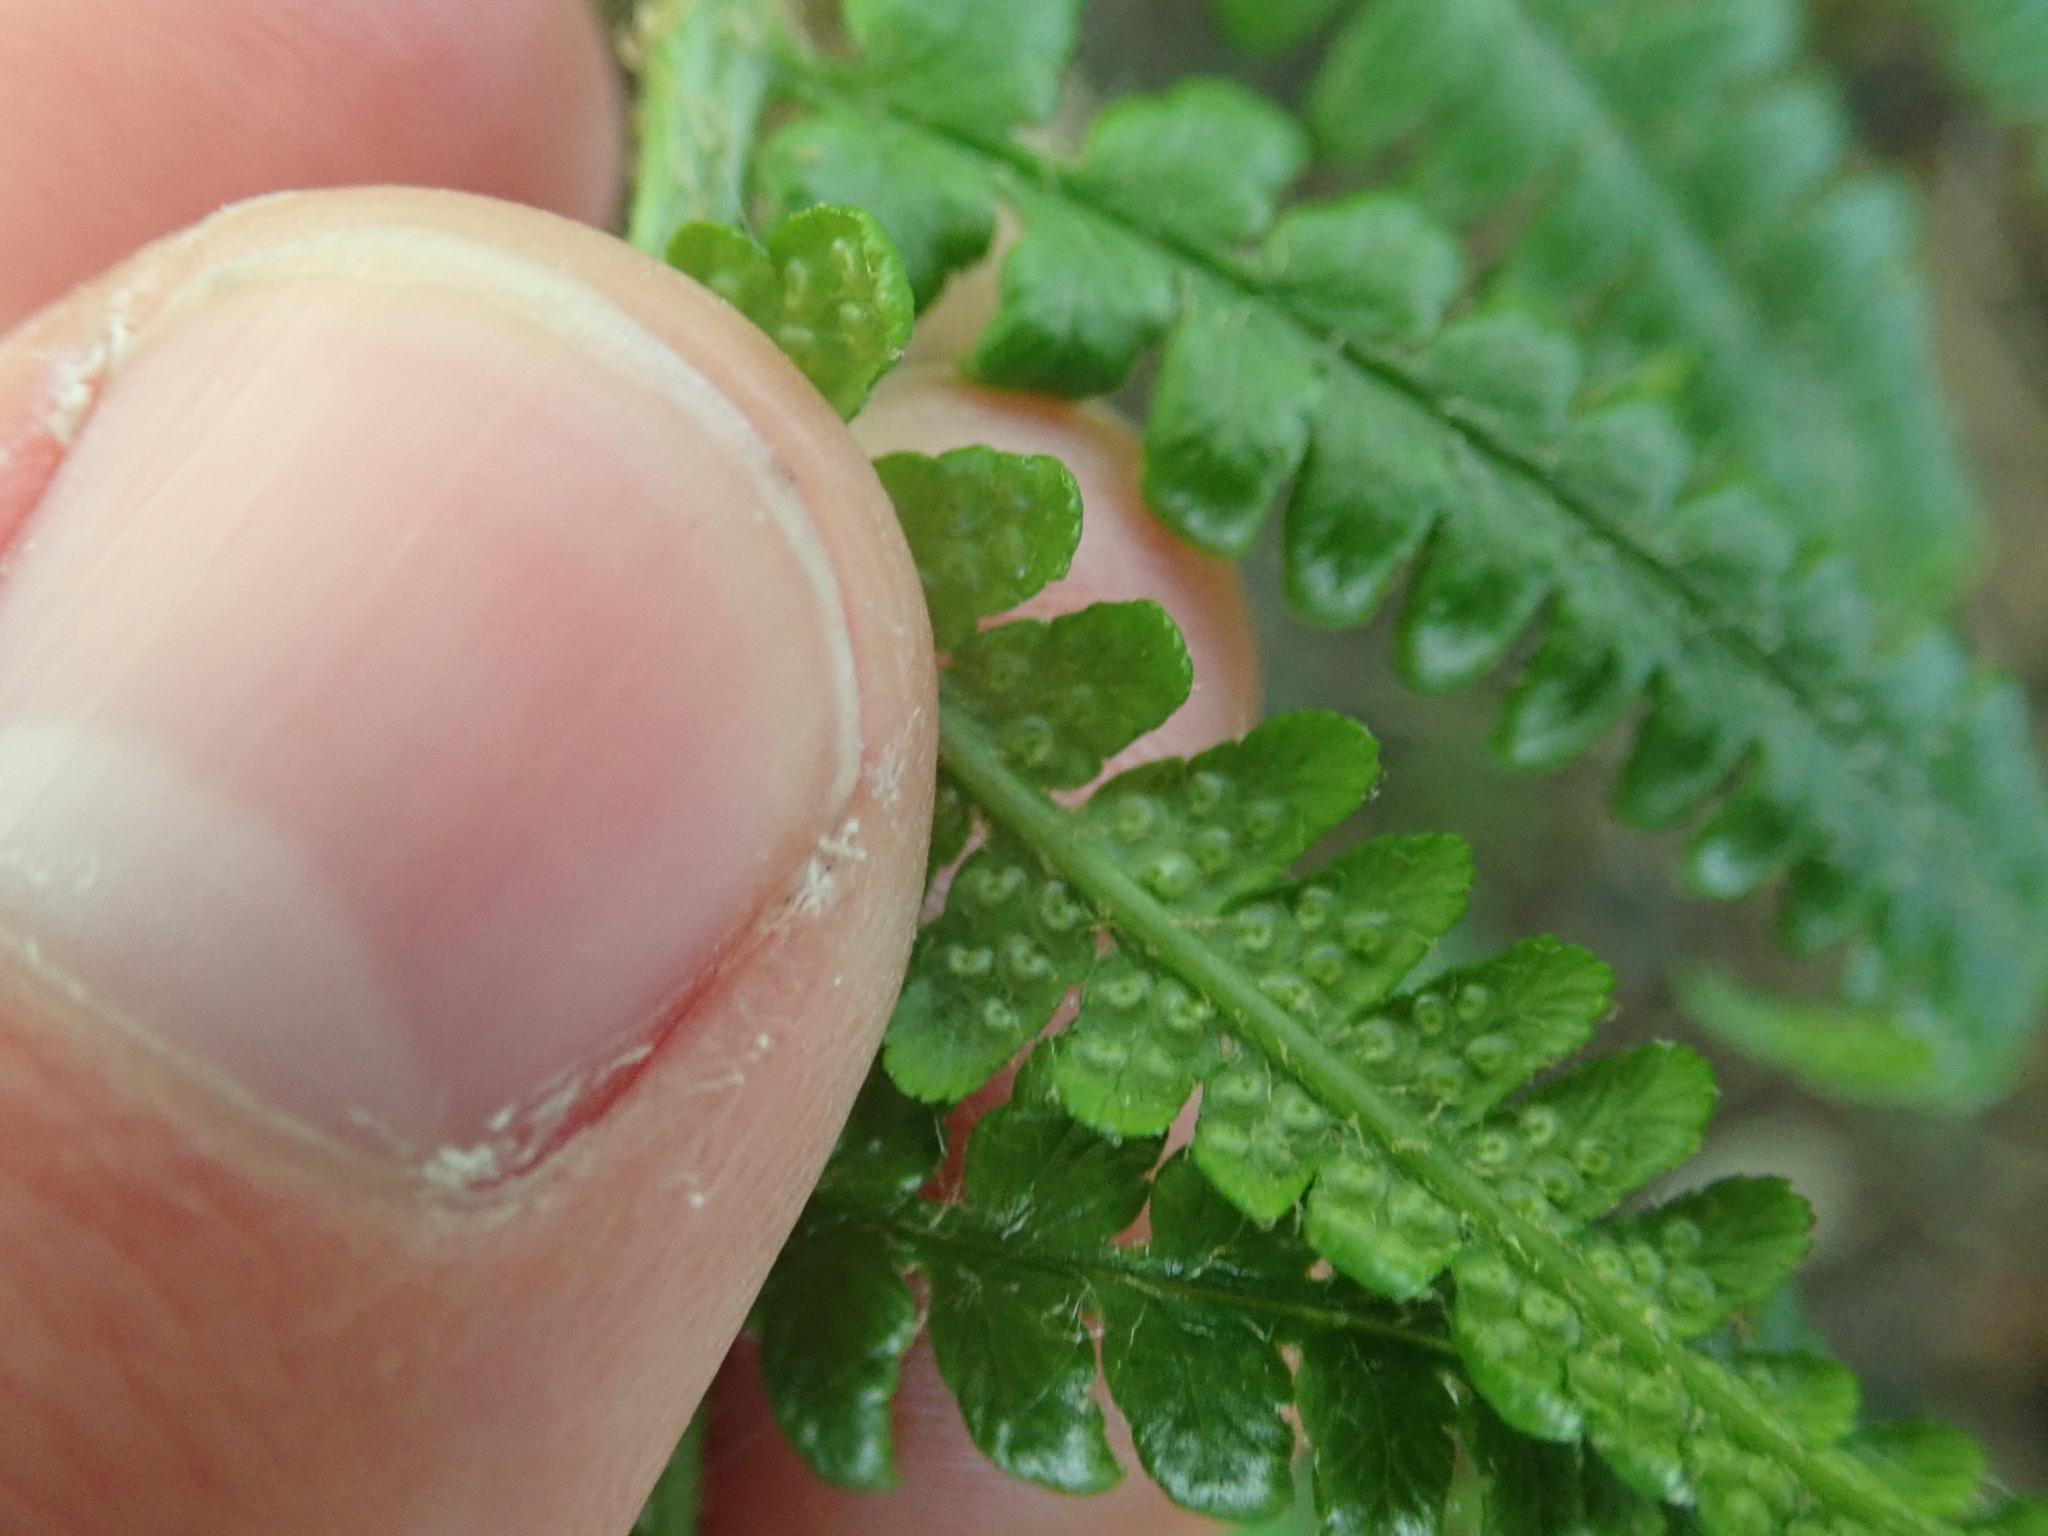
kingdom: Plantae
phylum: Tracheophyta
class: Polypodiopsida
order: Polypodiales
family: Dryopteridaceae
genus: Dryopteris
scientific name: Dryopteris filix-mas
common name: Male fern
